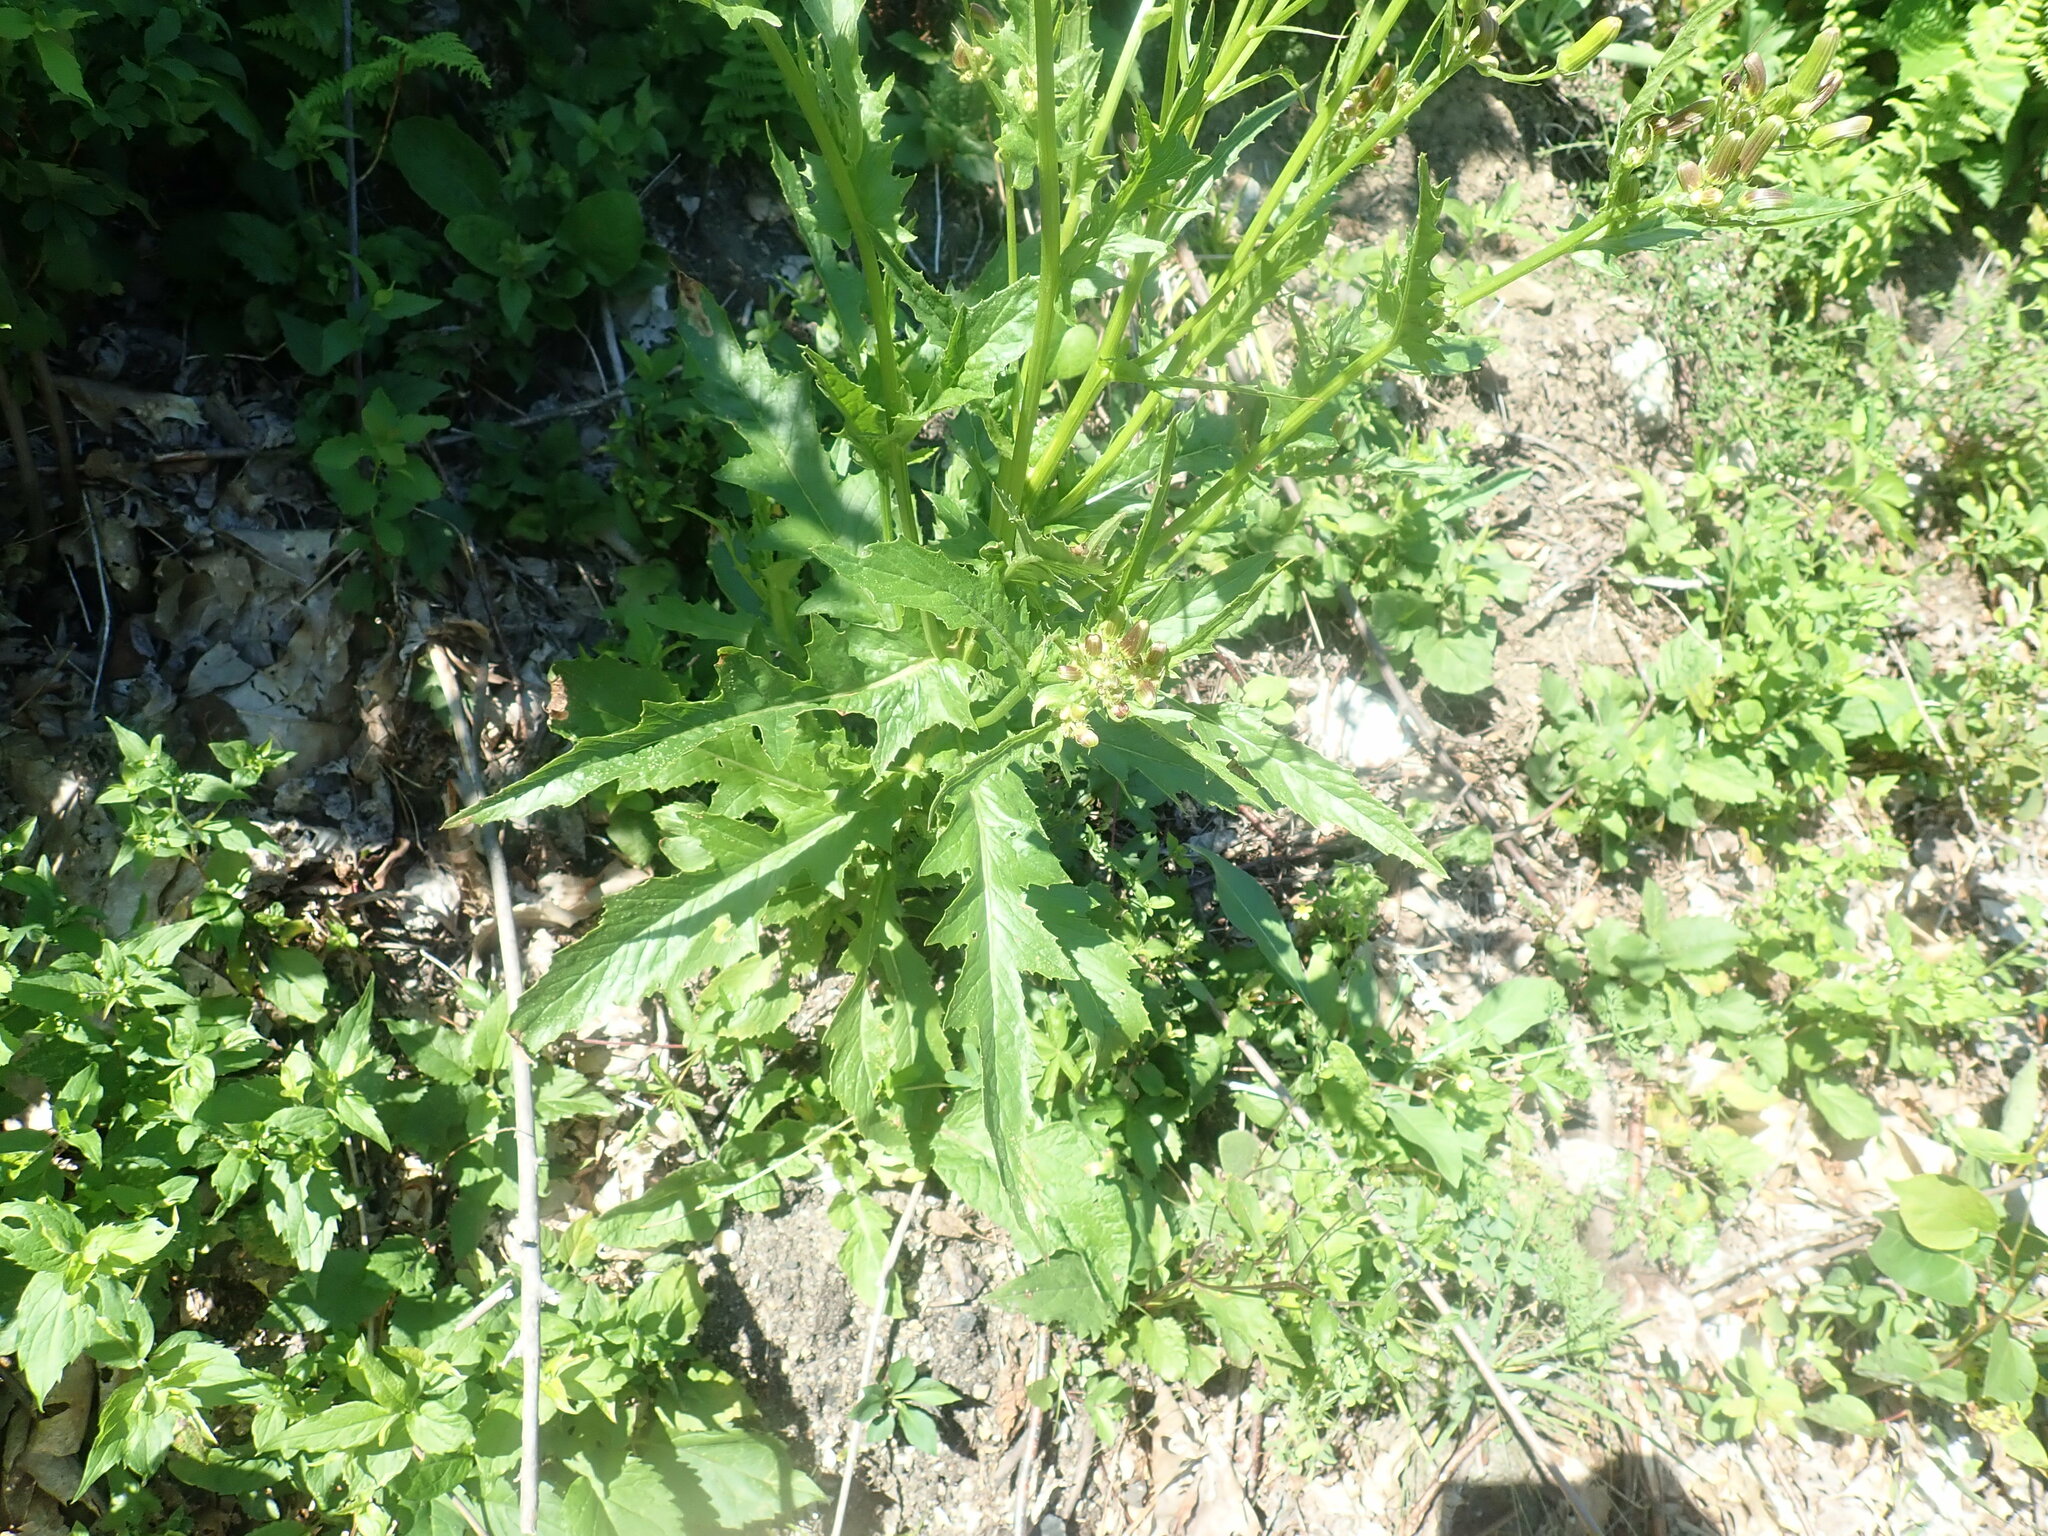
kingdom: Plantae
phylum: Tracheophyta
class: Magnoliopsida
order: Asterales
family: Asteraceae
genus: Erechtites
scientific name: Erechtites hieraciifolius
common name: American burnweed
